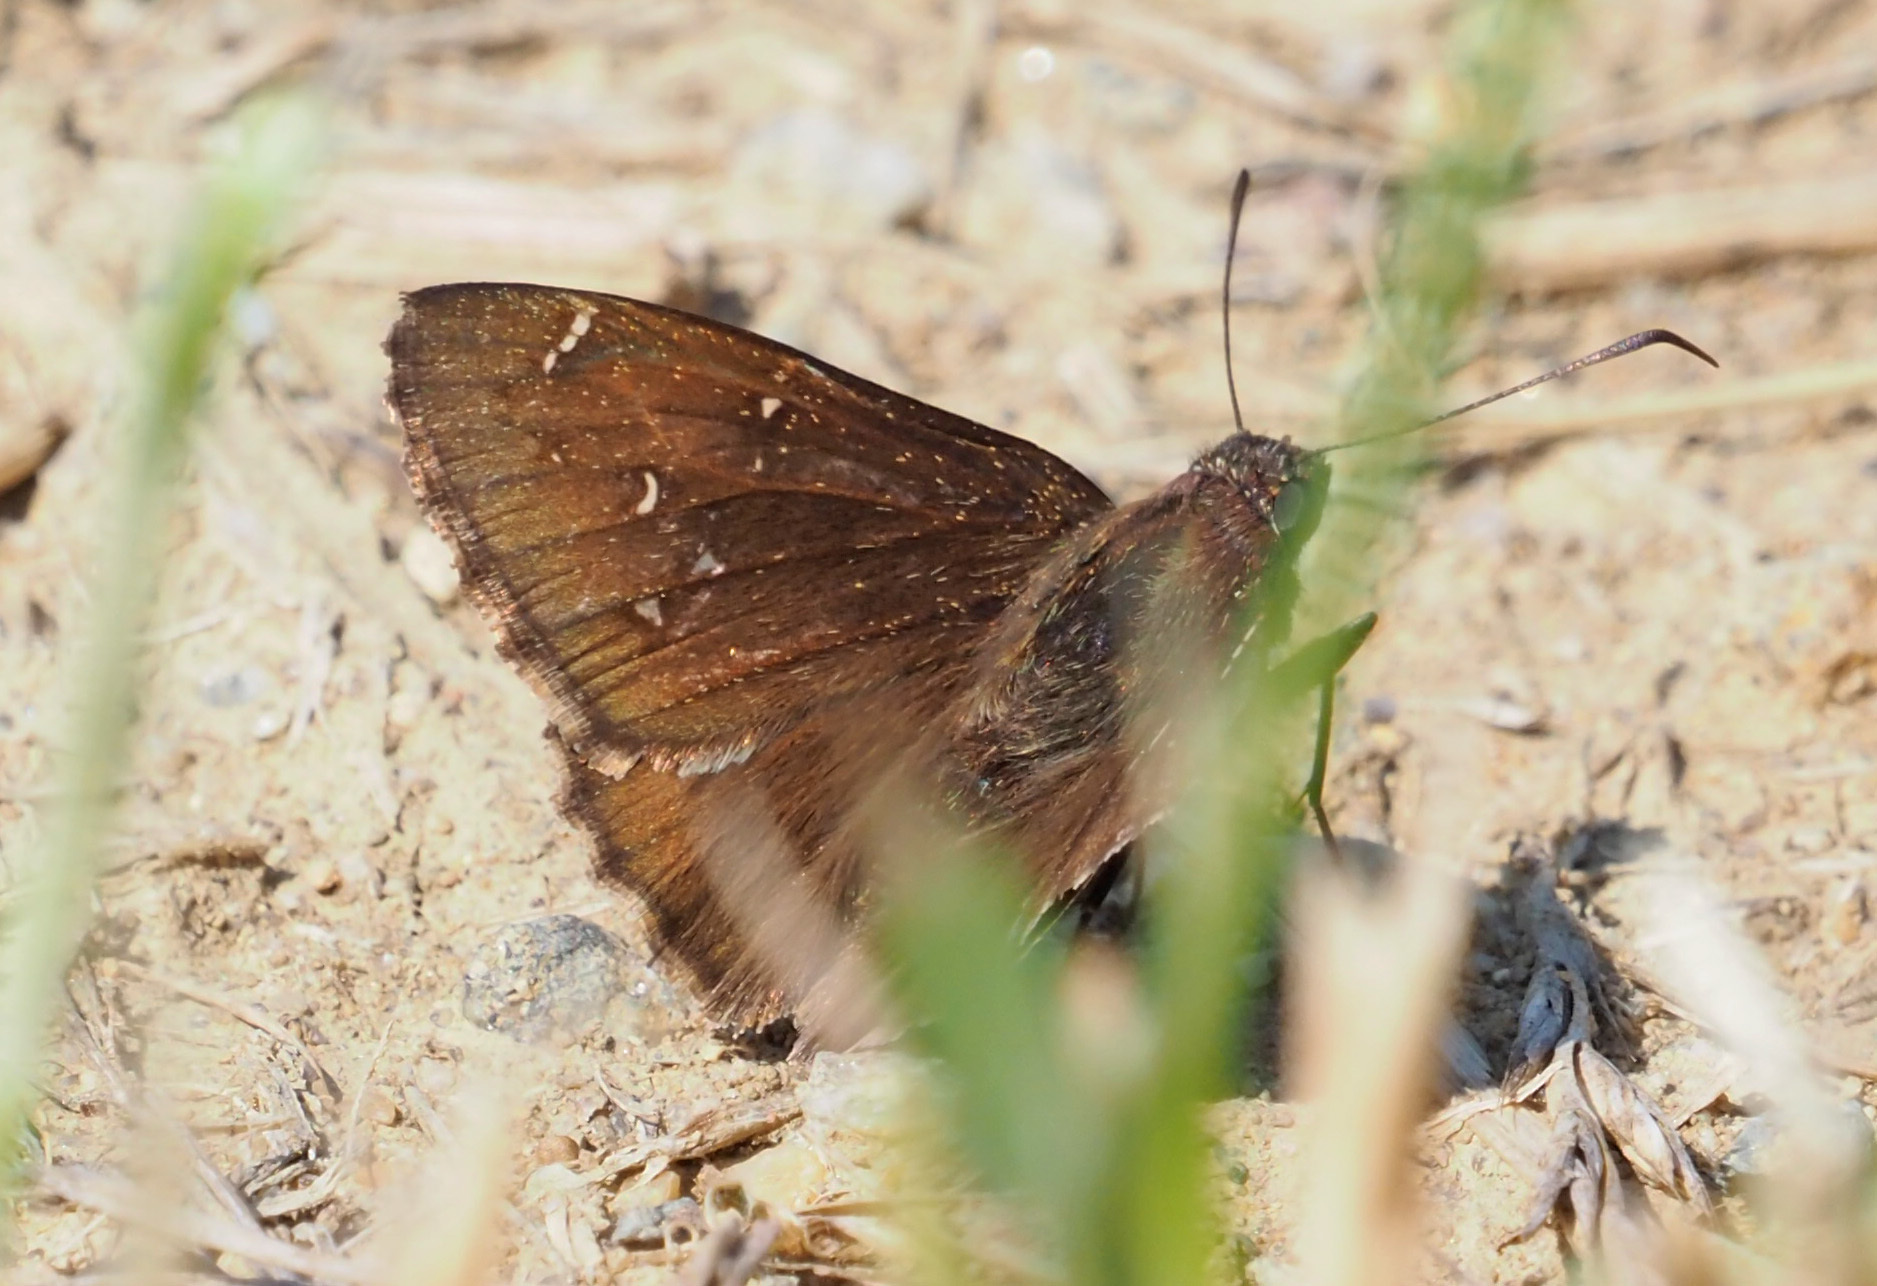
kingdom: Animalia
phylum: Arthropoda
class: Insecta
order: Lepidoptera
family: Hesperiidae
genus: Thorybes
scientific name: Thorybes pylades
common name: Northern cloudywing
